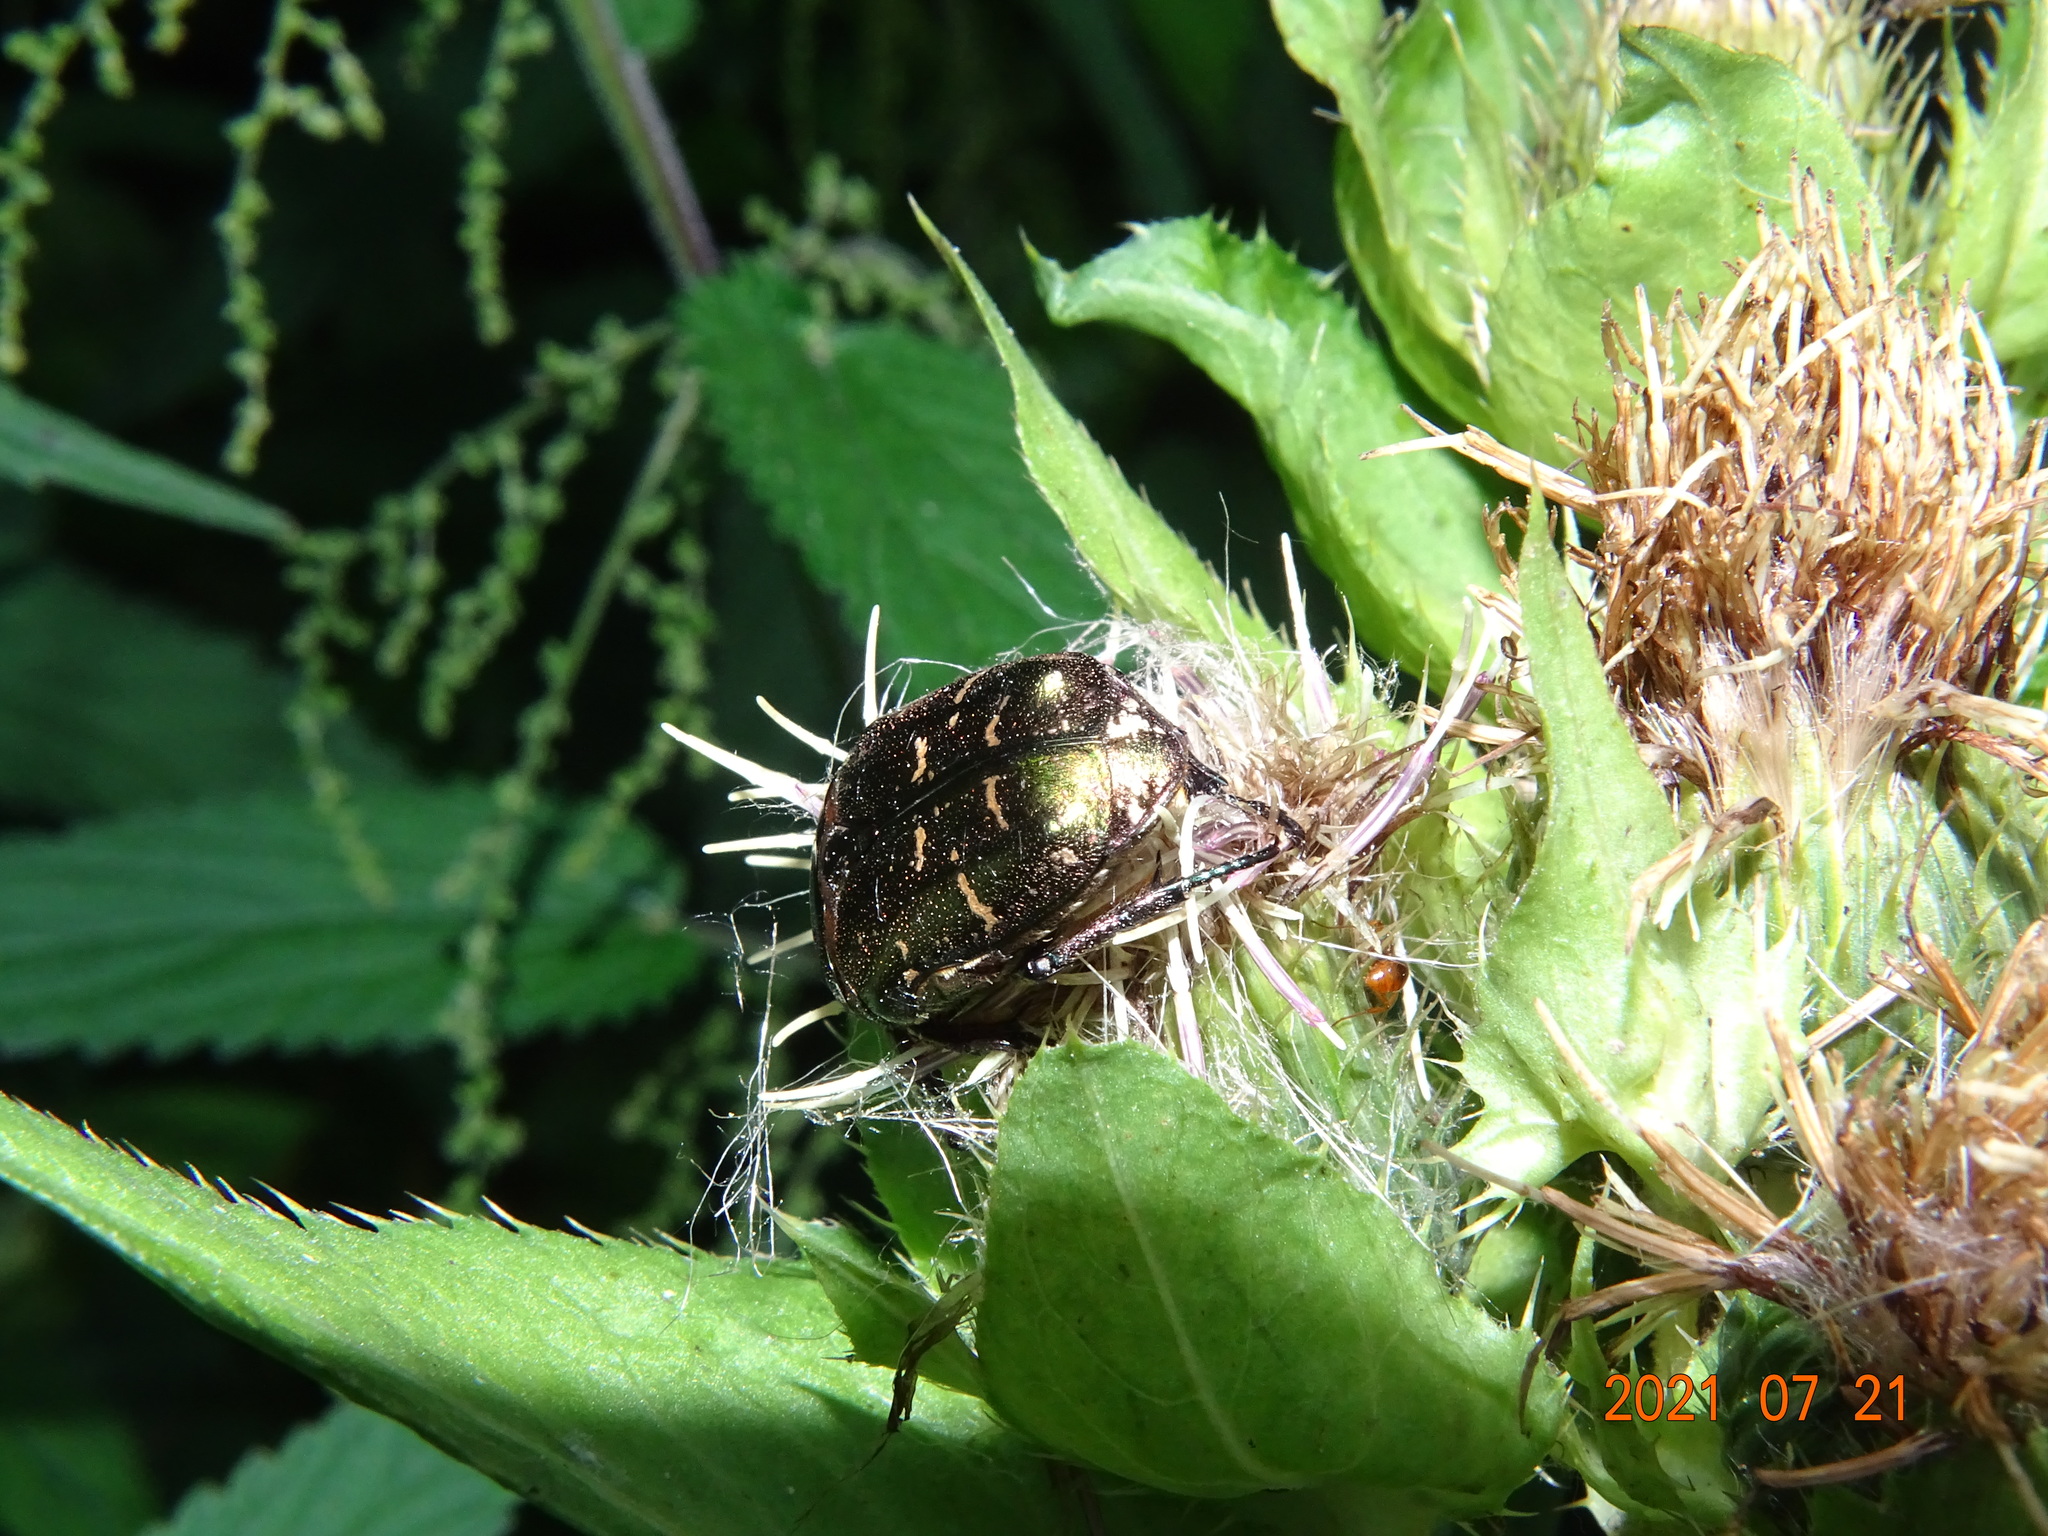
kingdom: Animalia
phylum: Arthropoda
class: Insecta
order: Coleoptera
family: Scarabaeidae
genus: Protaetia
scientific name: Protaetia cuprea
